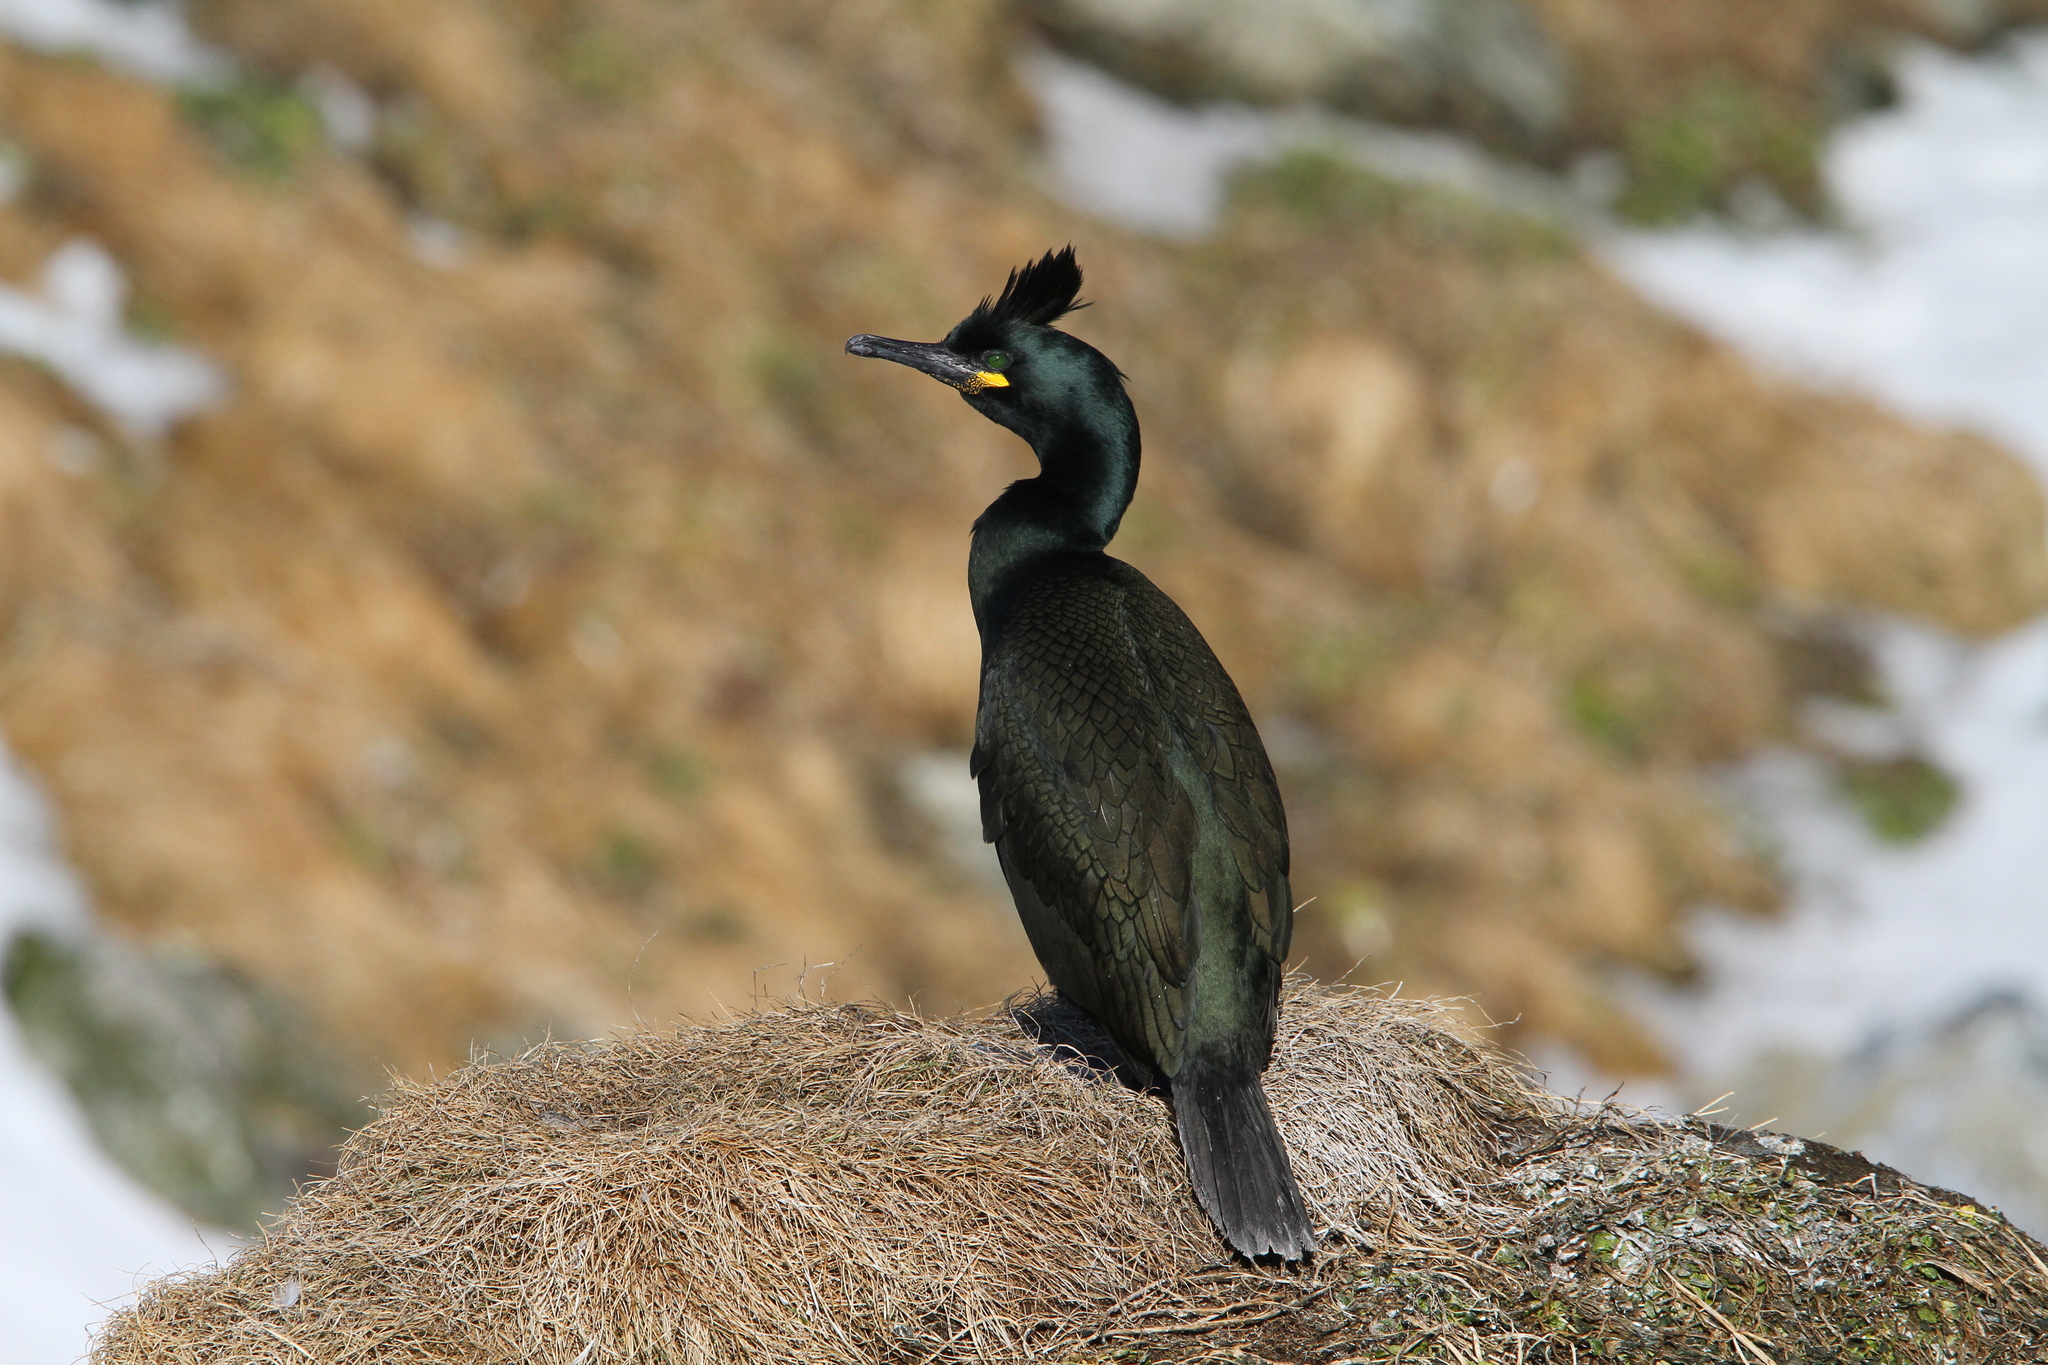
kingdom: Animalia
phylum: Chordata
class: Aves
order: Suliformes
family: Phalacrocoracidae
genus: Phalacrocorax
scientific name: Phalacrocorax aristotelis
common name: European shag
